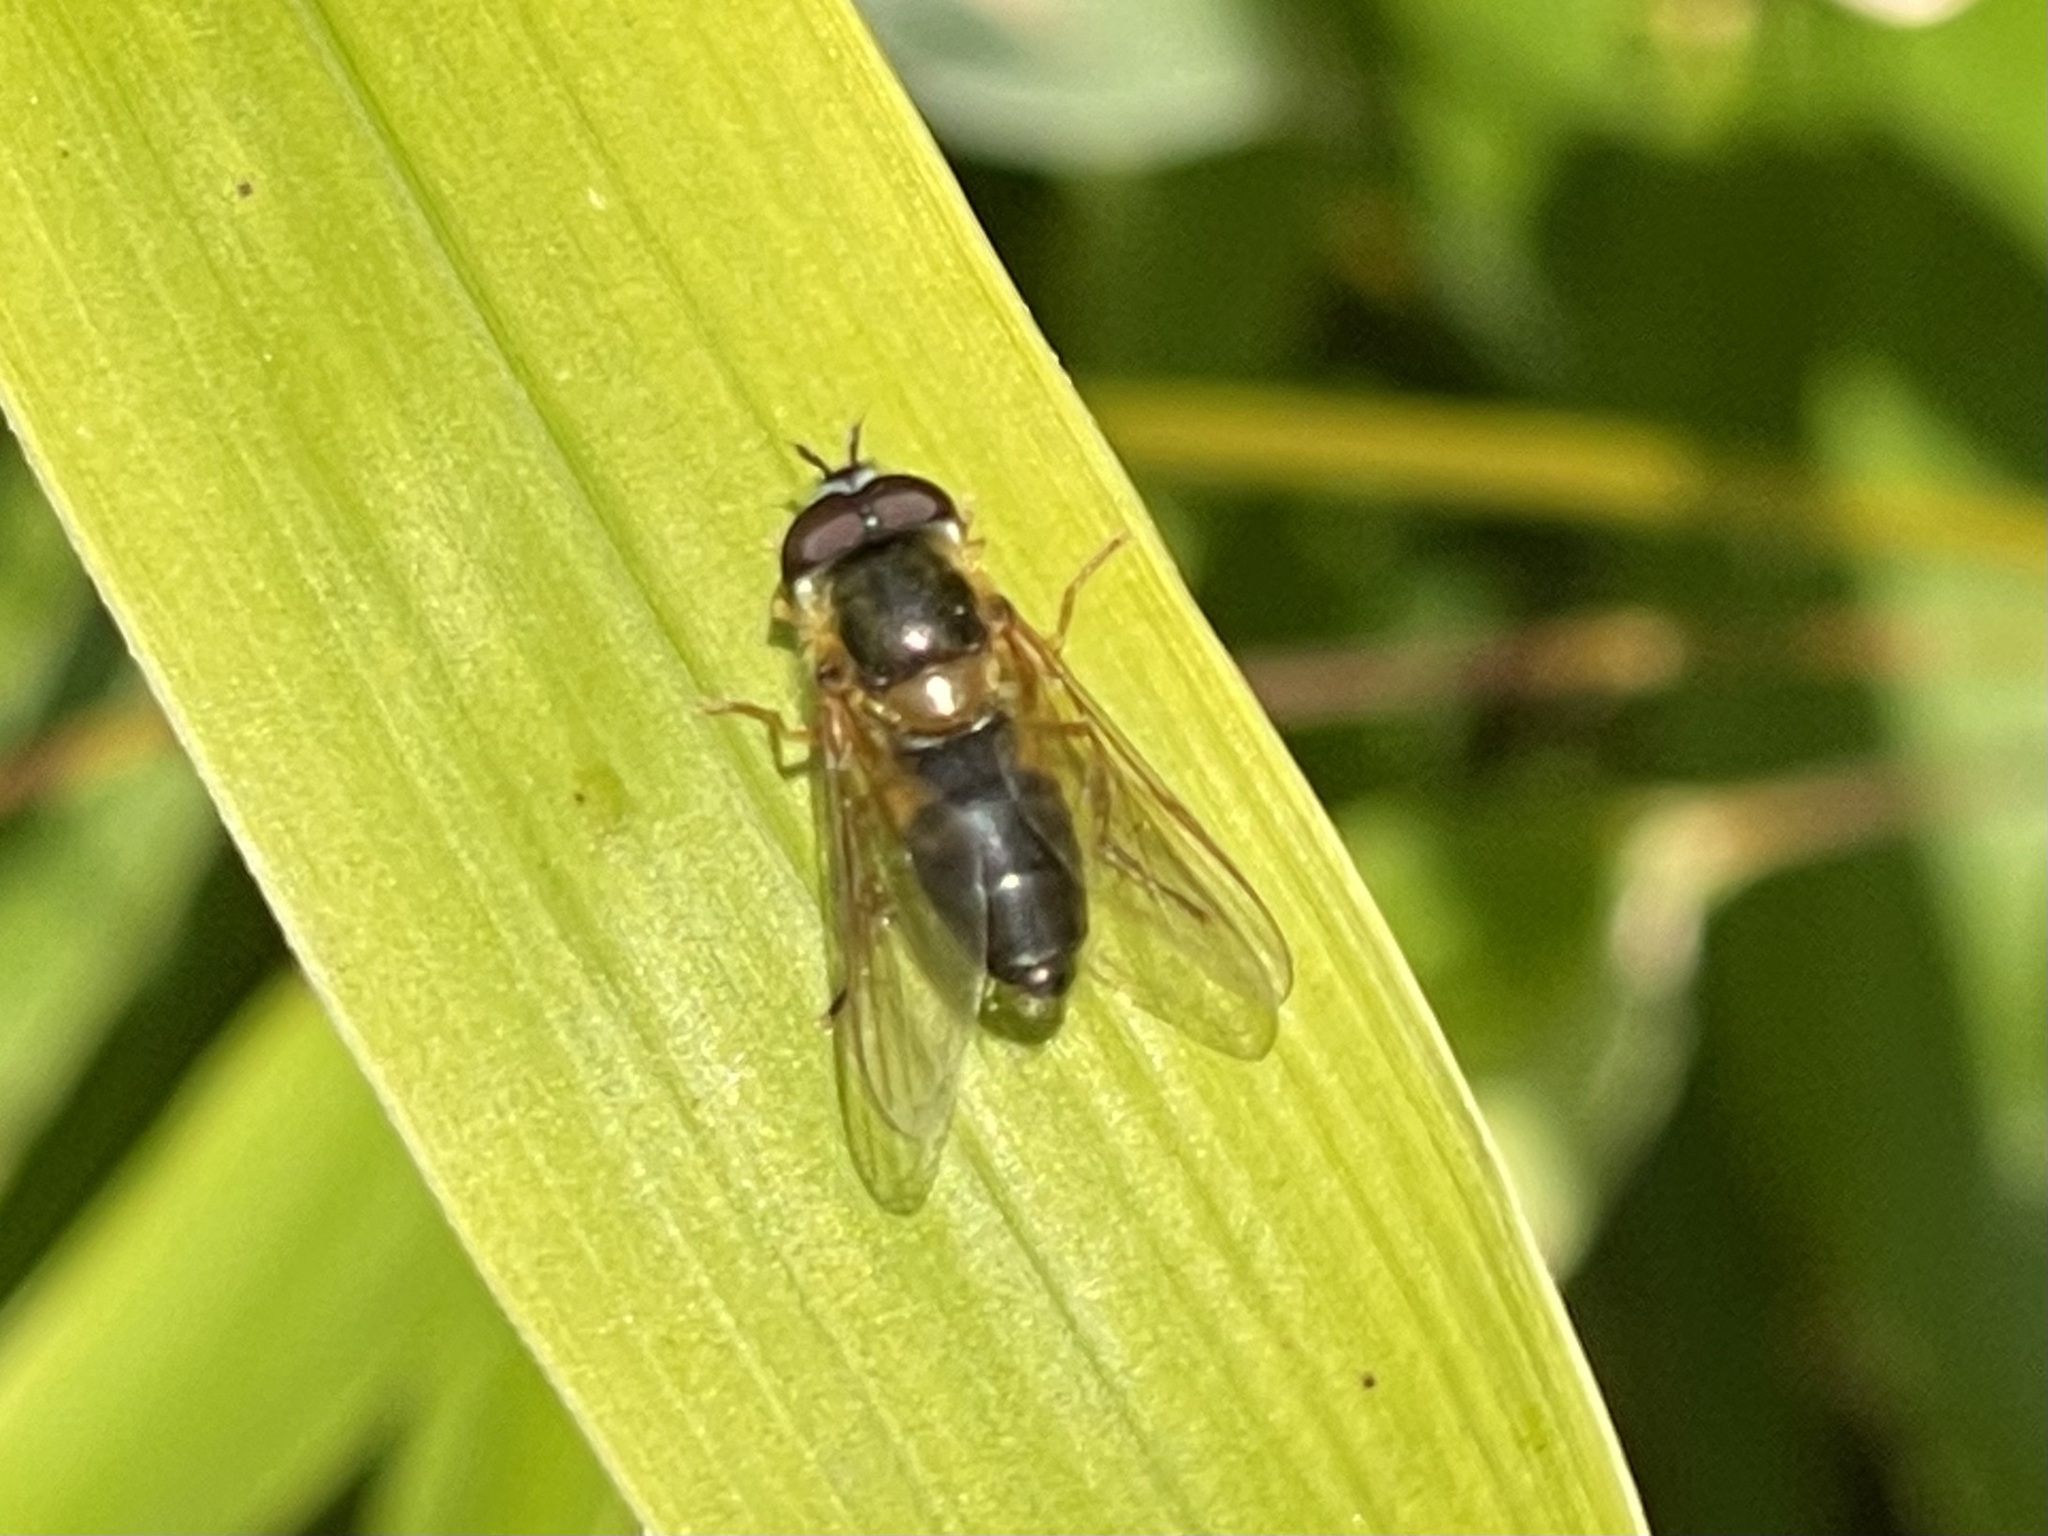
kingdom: Animalia
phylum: Arthropoda
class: Insecta
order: Diptera
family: Syrphidae
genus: Epistrophe
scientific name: Epistrophe eligans
